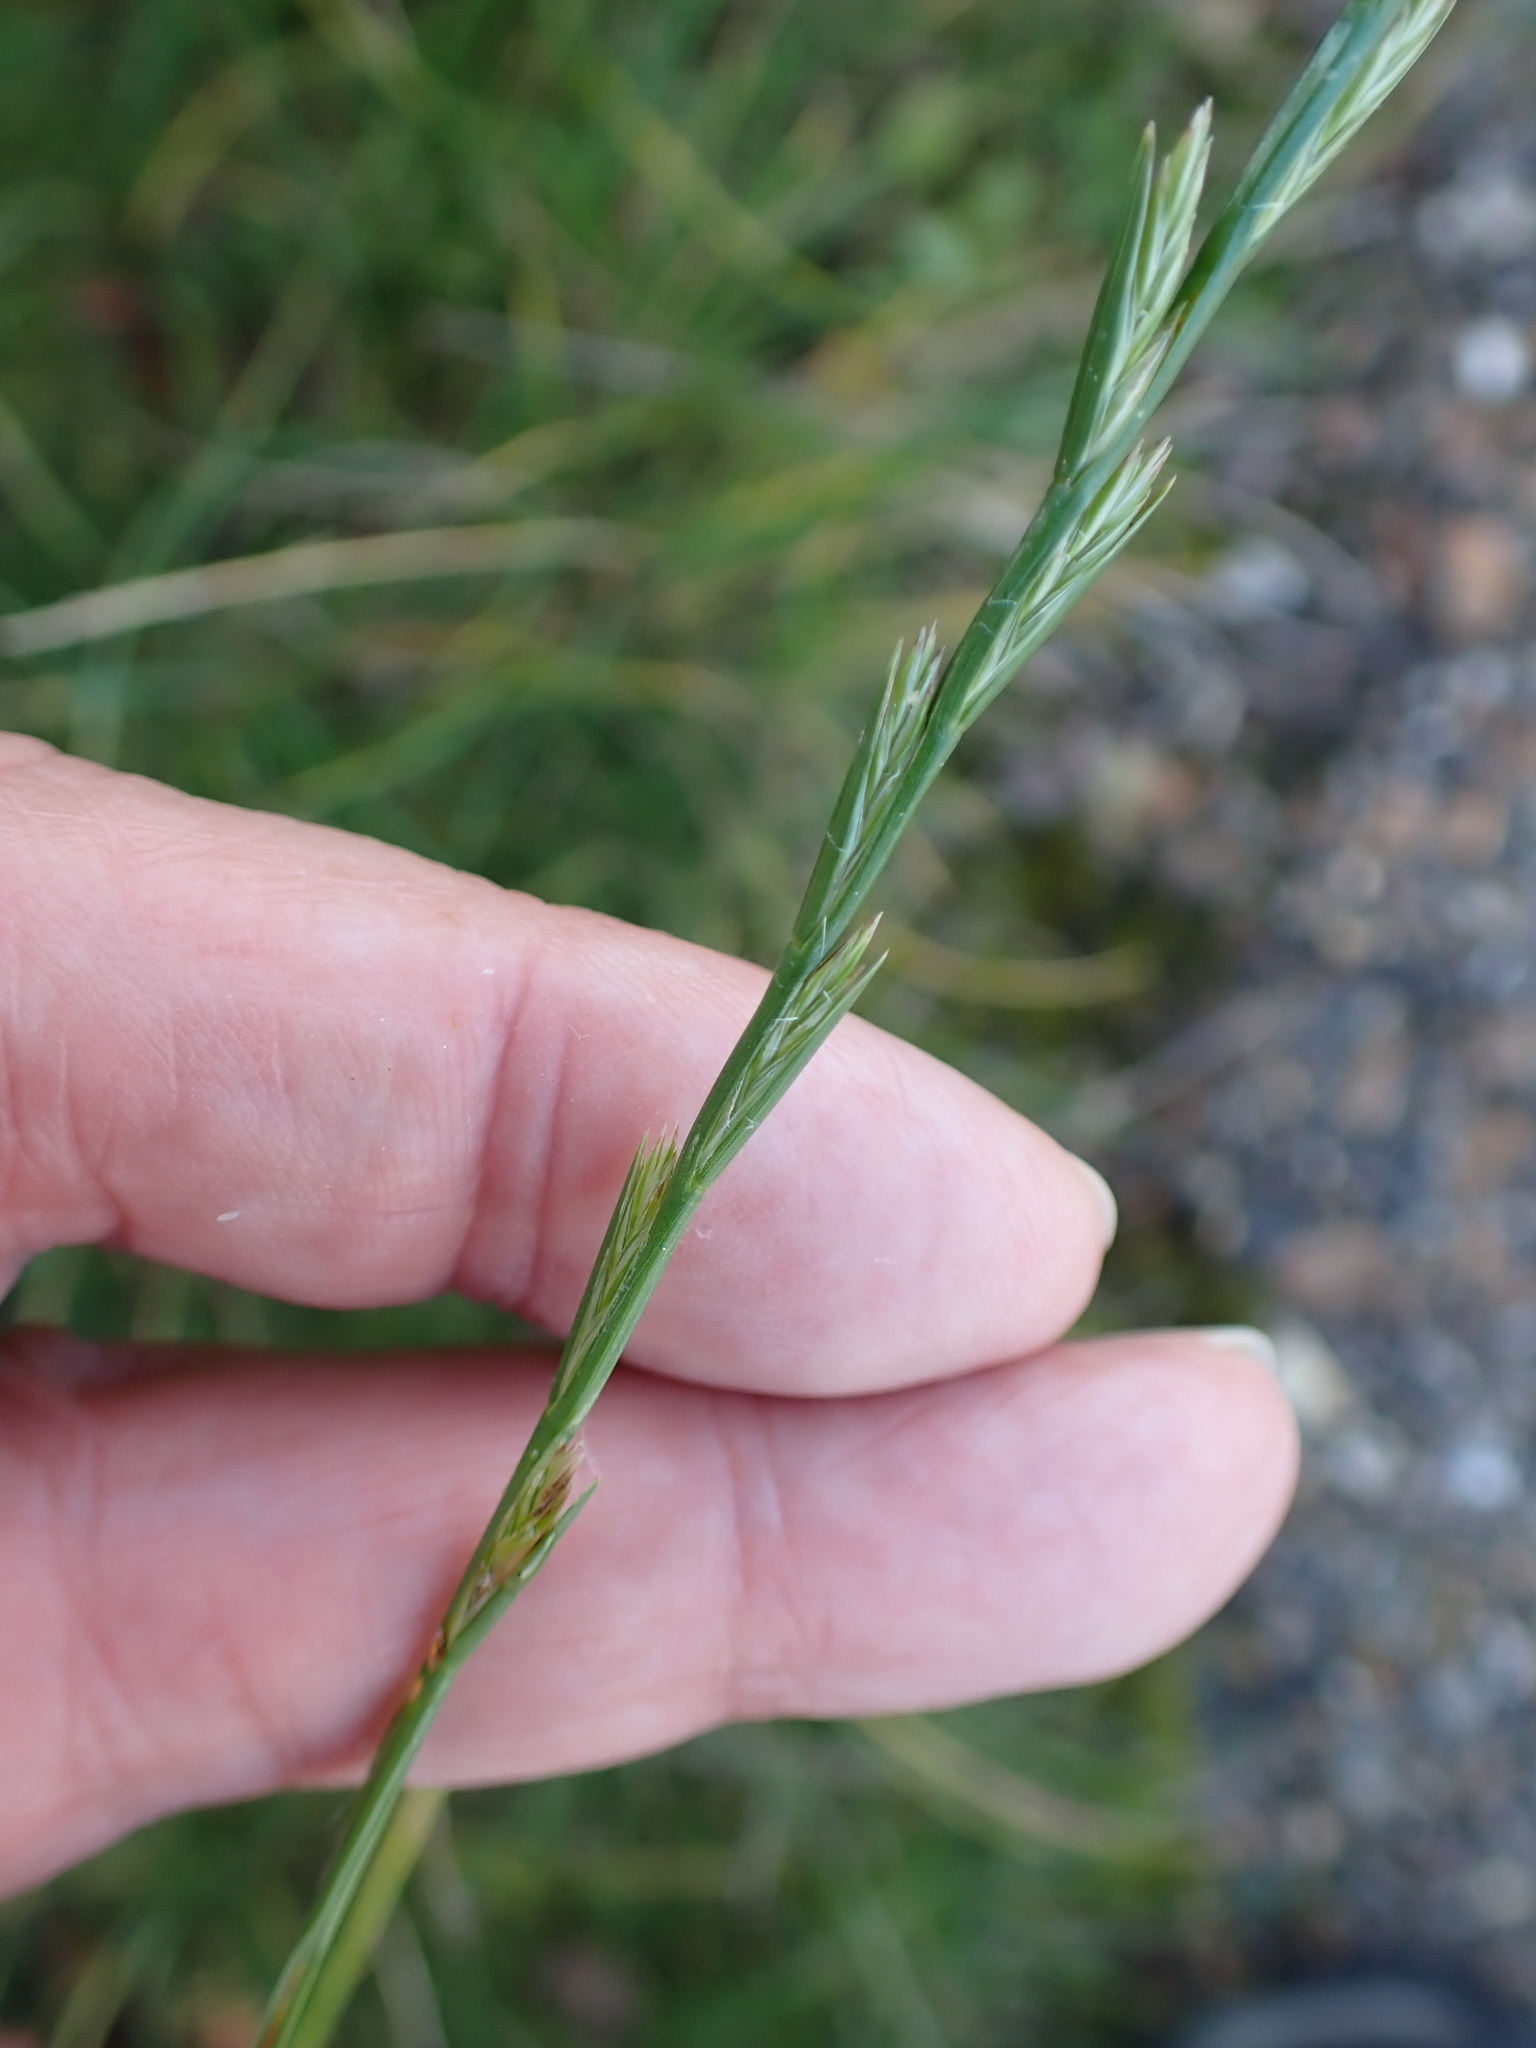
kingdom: Plantae
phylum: Tracheophyta
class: Liliopsida
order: Poales
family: Poaceae
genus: Lolium
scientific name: Lolium perenne
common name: Perennial ryegrass
